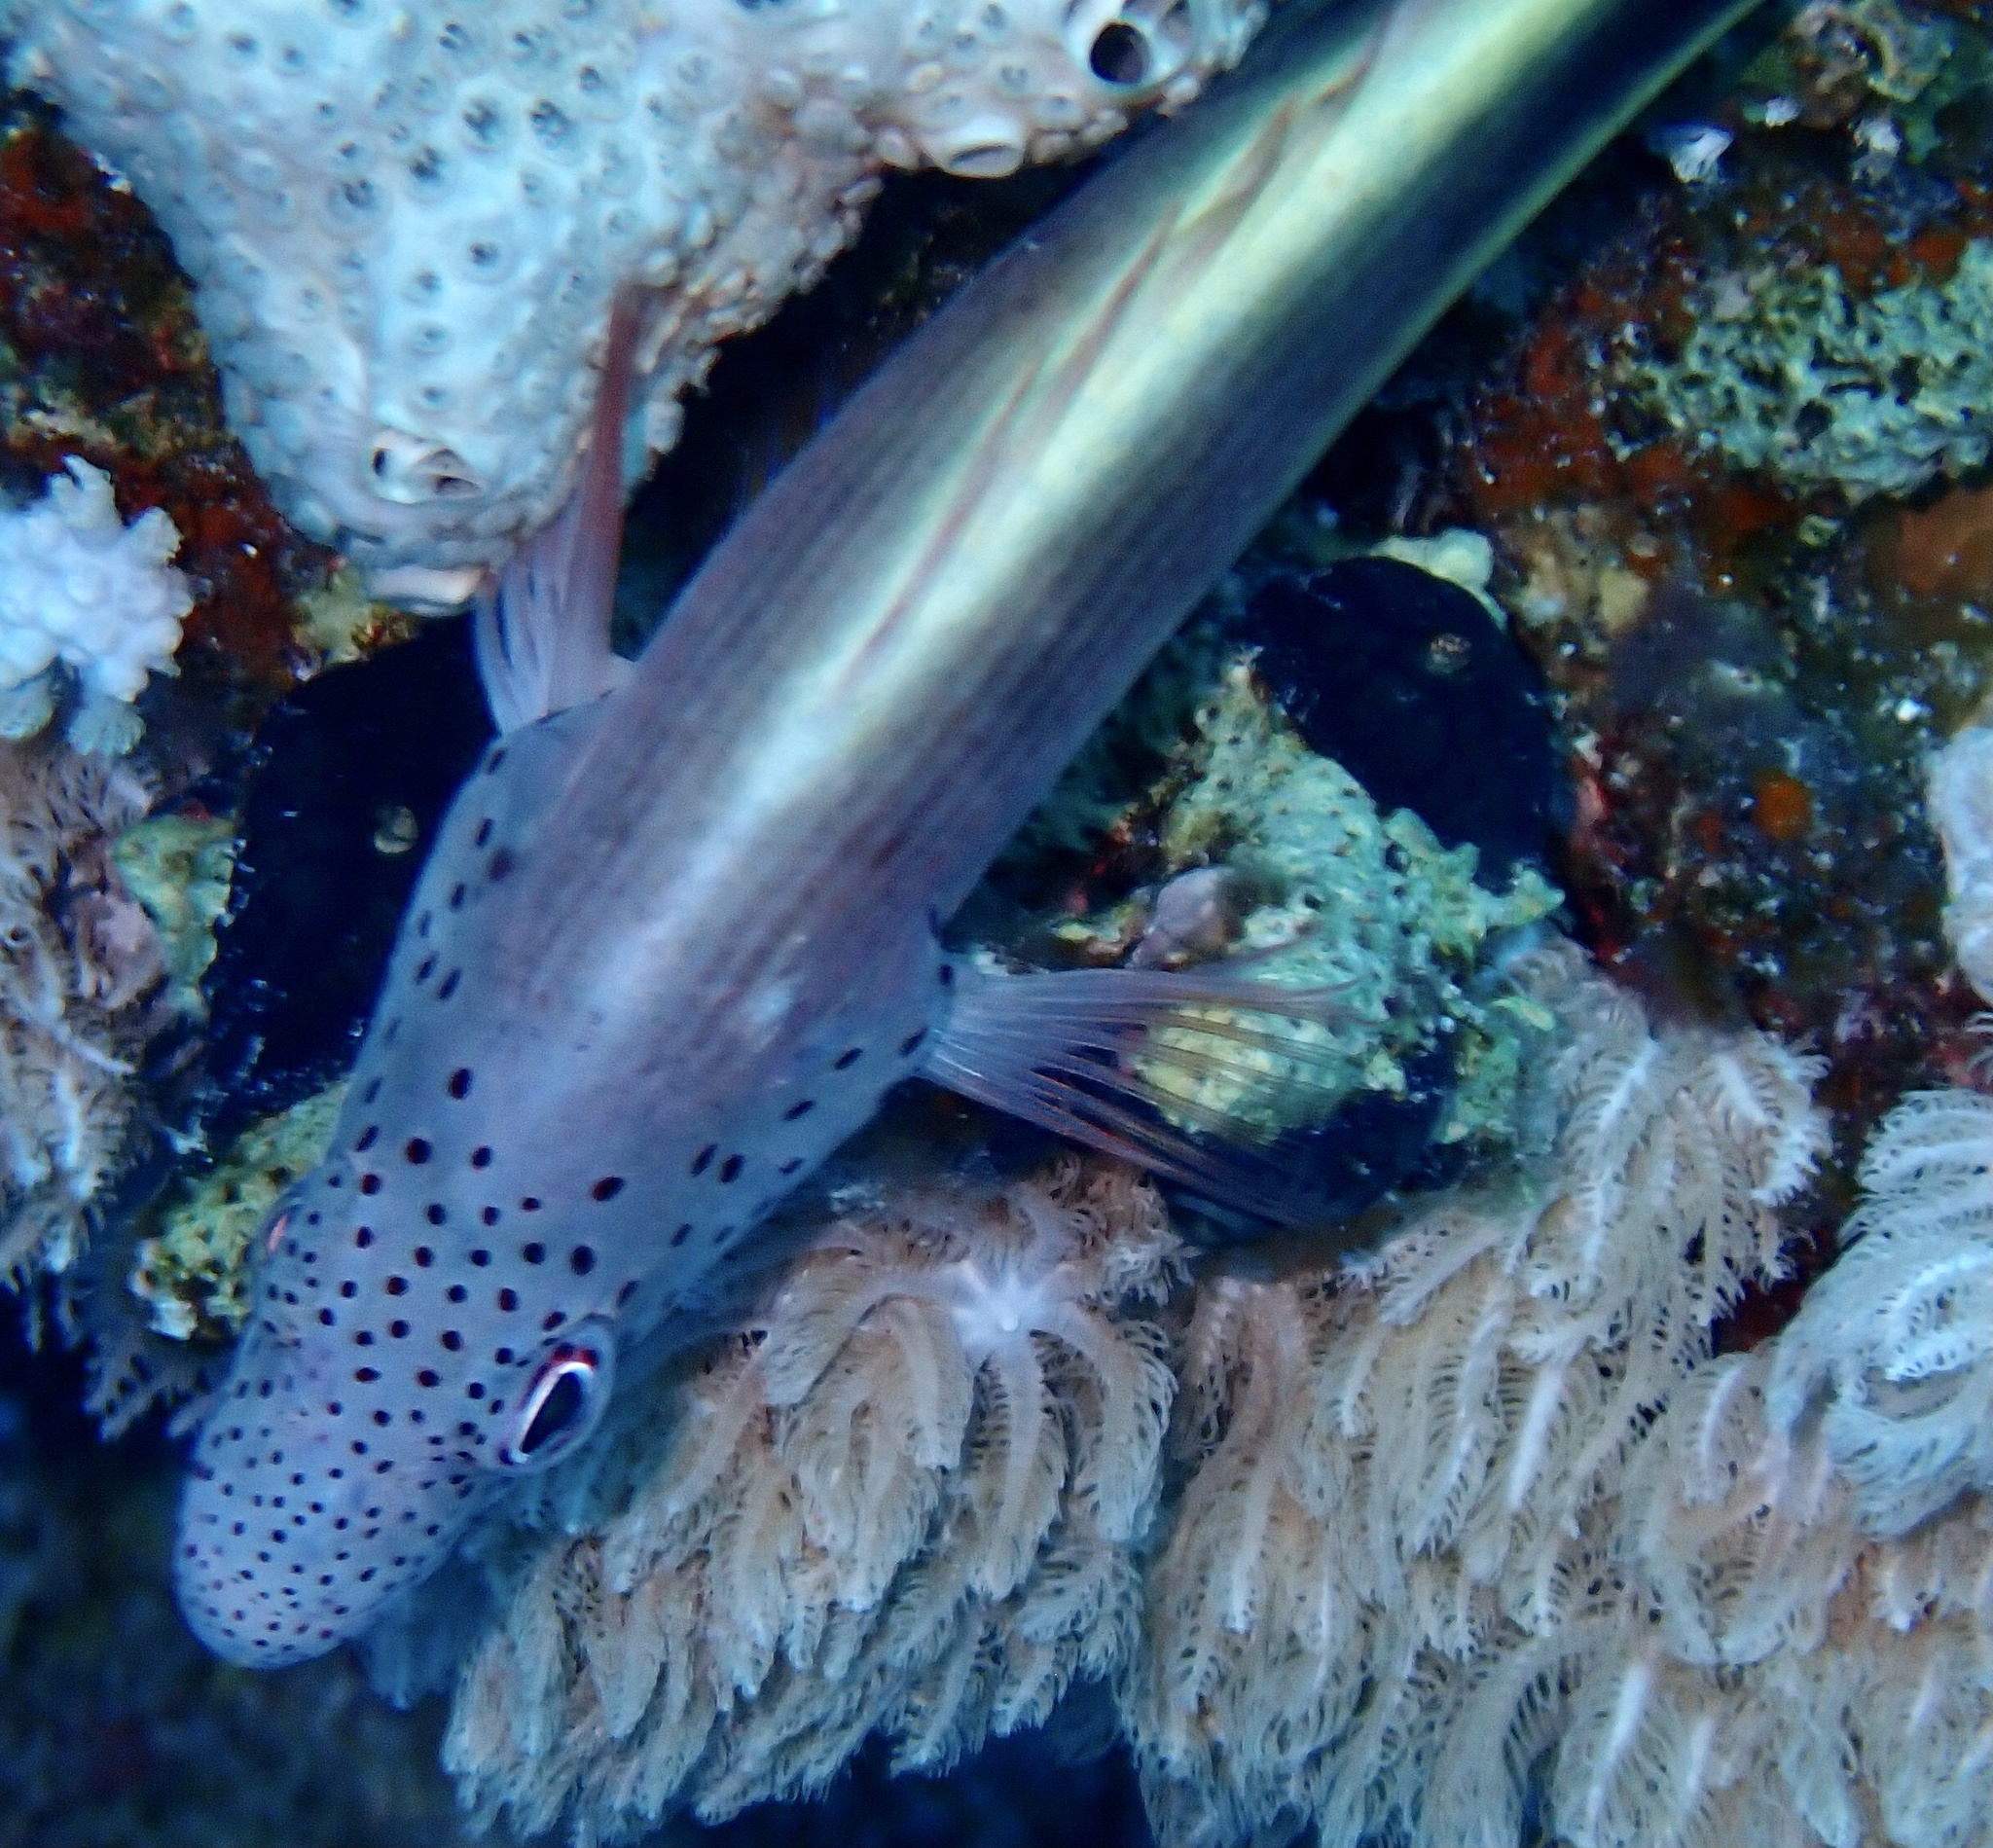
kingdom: Animalia
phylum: Chordata
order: Perciformes
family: Cirrhitidae
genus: Paracirrhites
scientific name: Paracirrhites forsteri
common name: Freckled hawkfish
